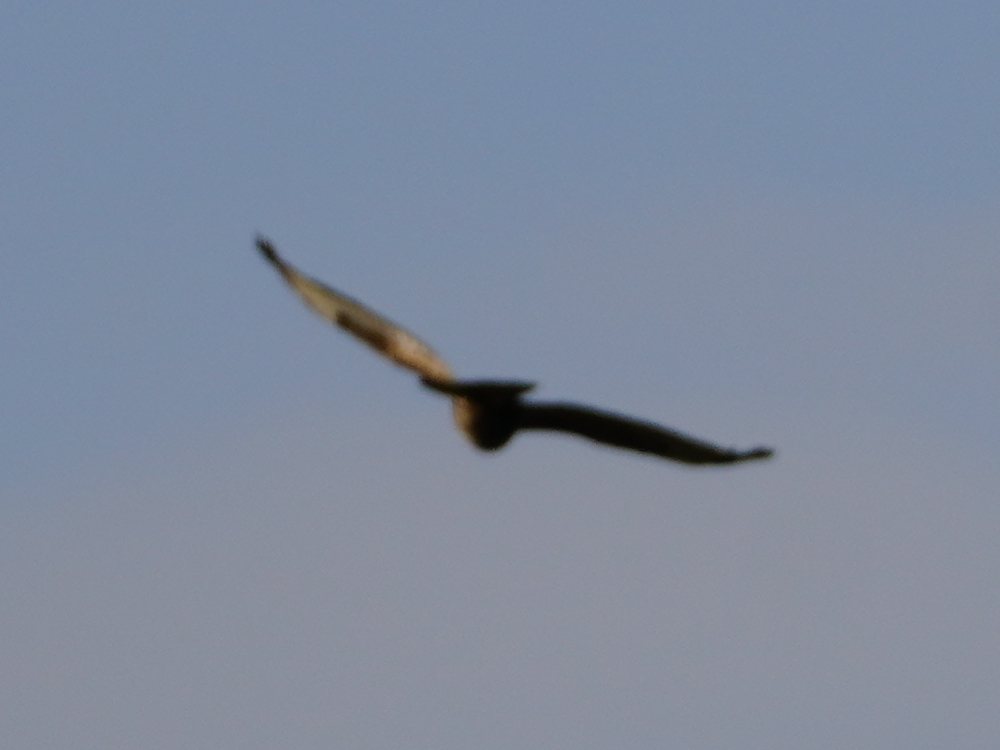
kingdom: Animalia
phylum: Chordata
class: Aves
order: Accipitriformes
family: Accipitridae
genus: Buteo
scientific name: Buteo buteo
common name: Common buzzard
